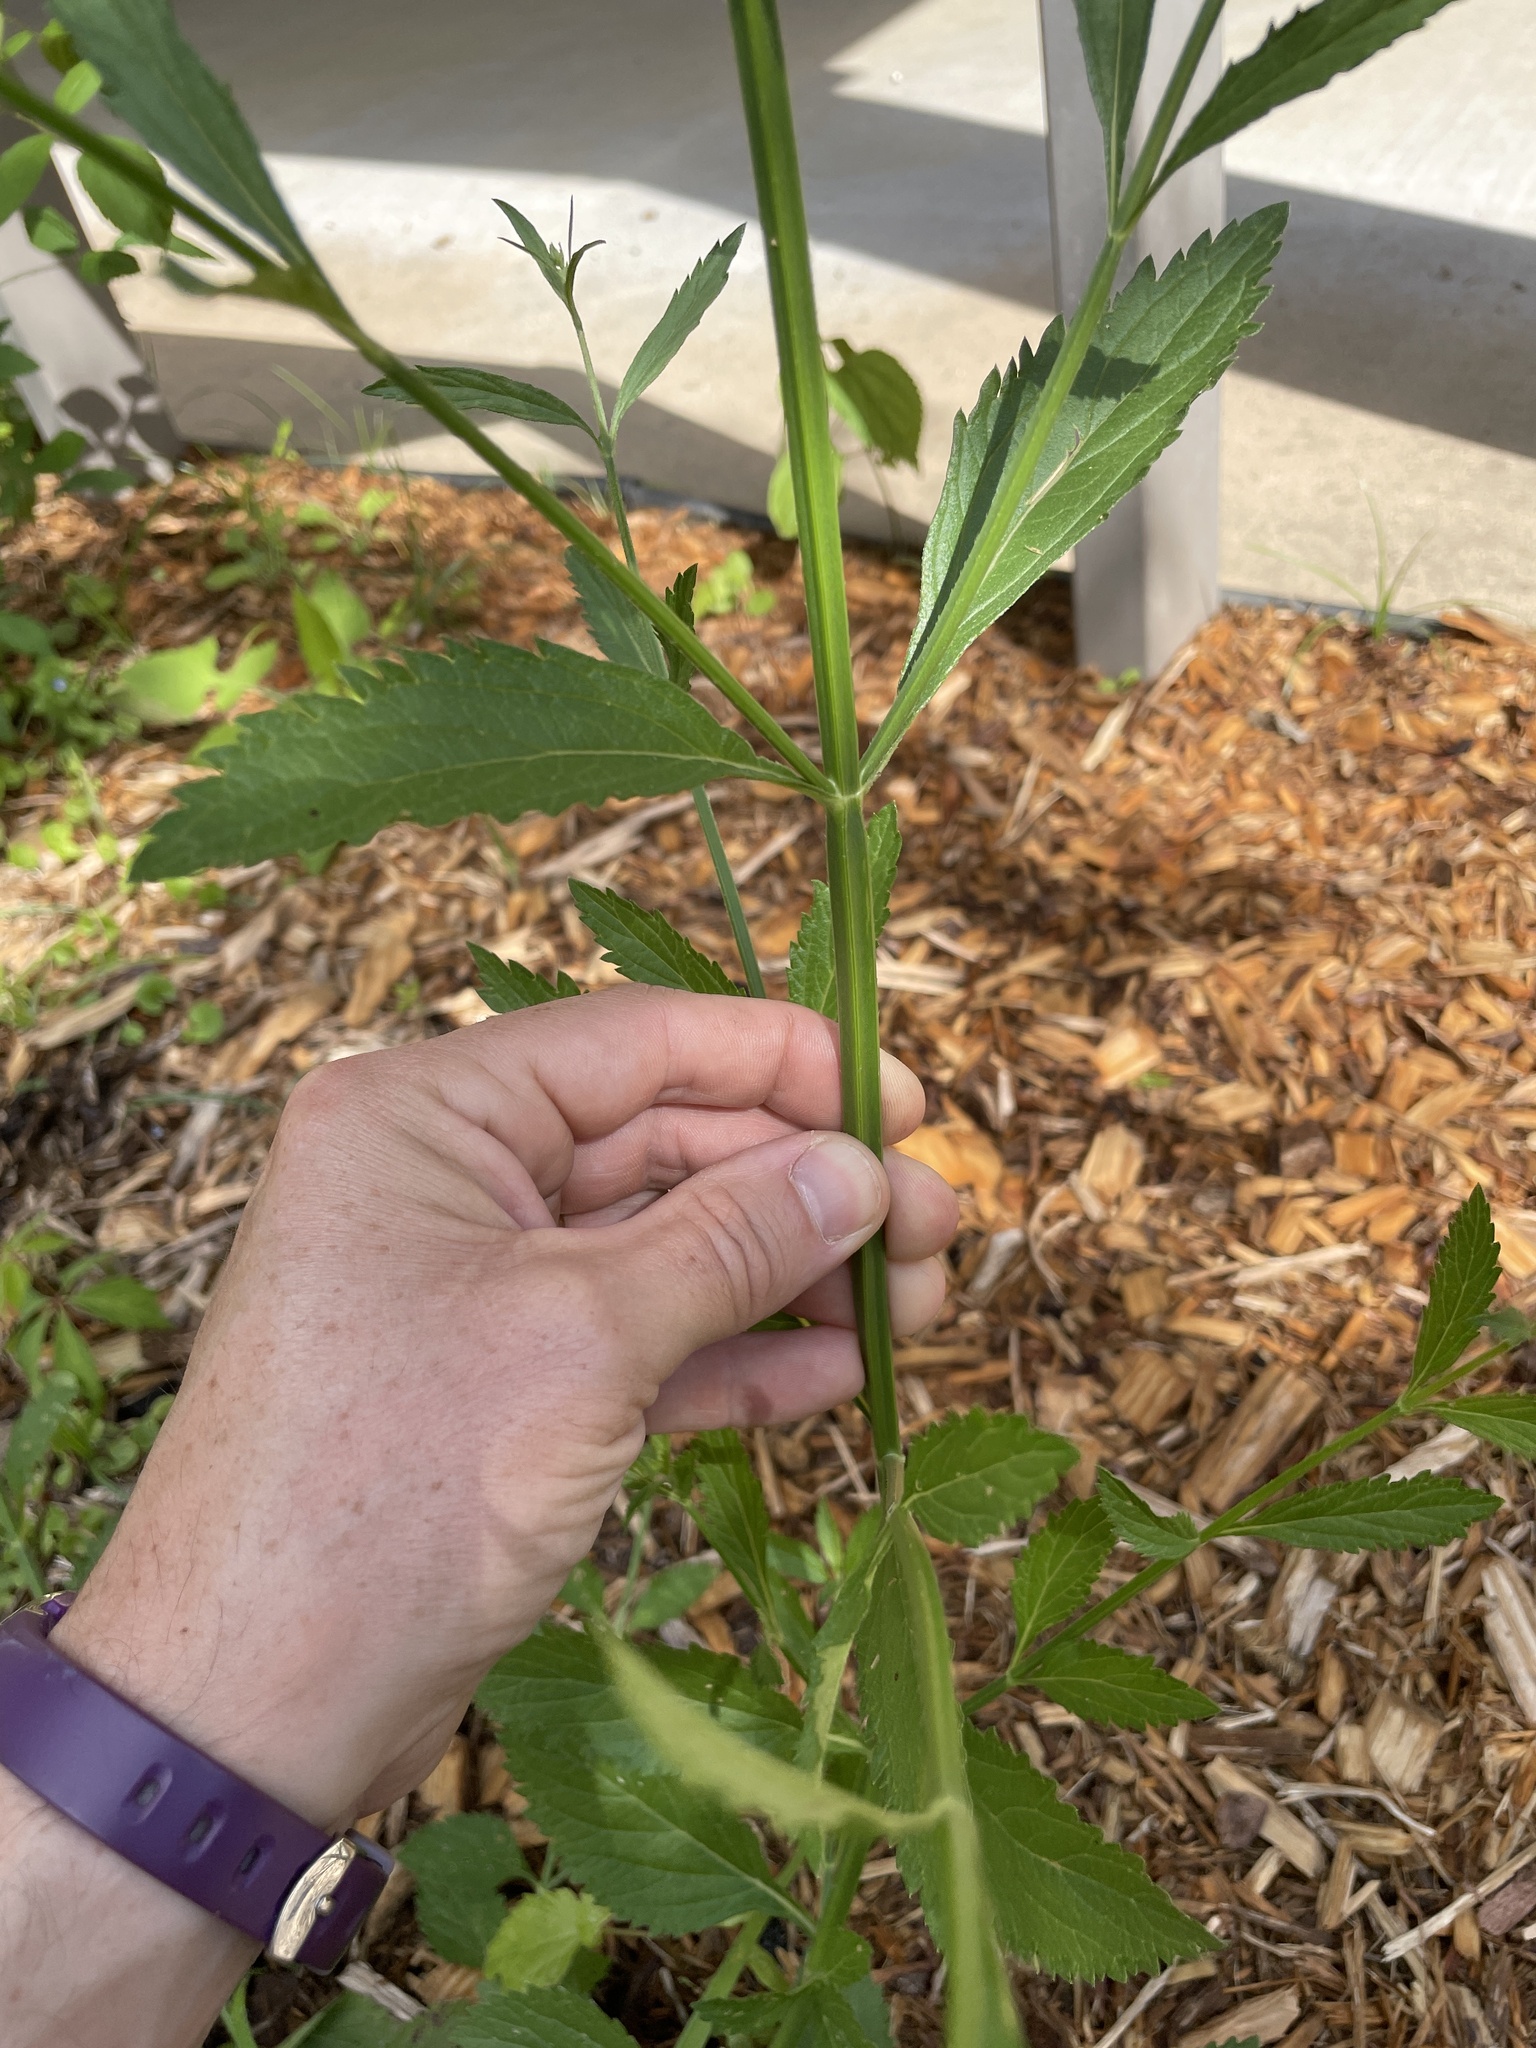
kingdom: Plantae
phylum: Tracheophyta
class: Magnoliopsida
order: Lamiales
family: Verbenaceae
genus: Verbena
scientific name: Verbena brasiliensis
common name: Brazilian vervain
